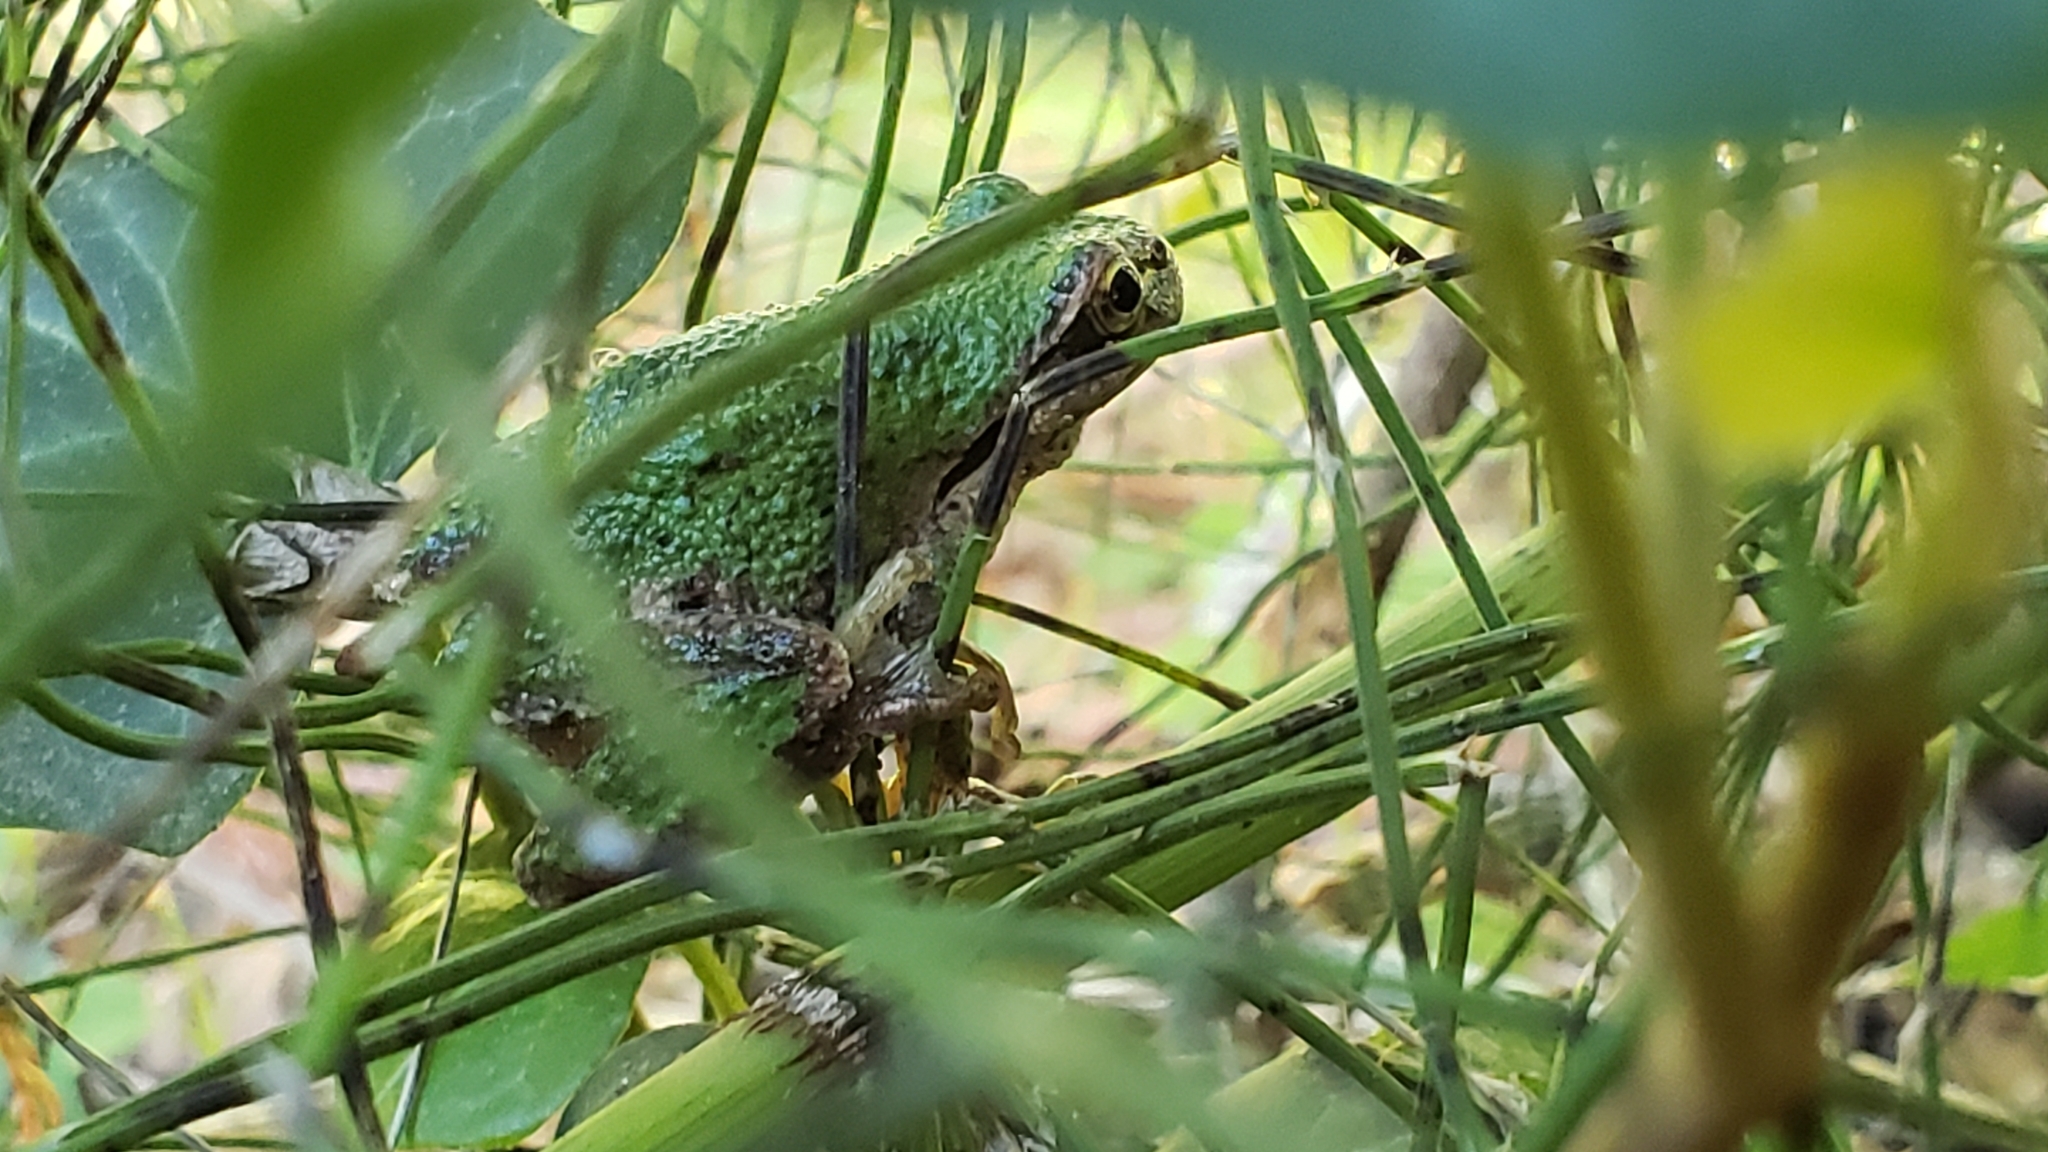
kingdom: Animalia
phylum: Chordata
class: Amphibia
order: Anura
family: Hylidae
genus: Pseudacris
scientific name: Pseudacris regilla
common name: Pacific chorus frog
